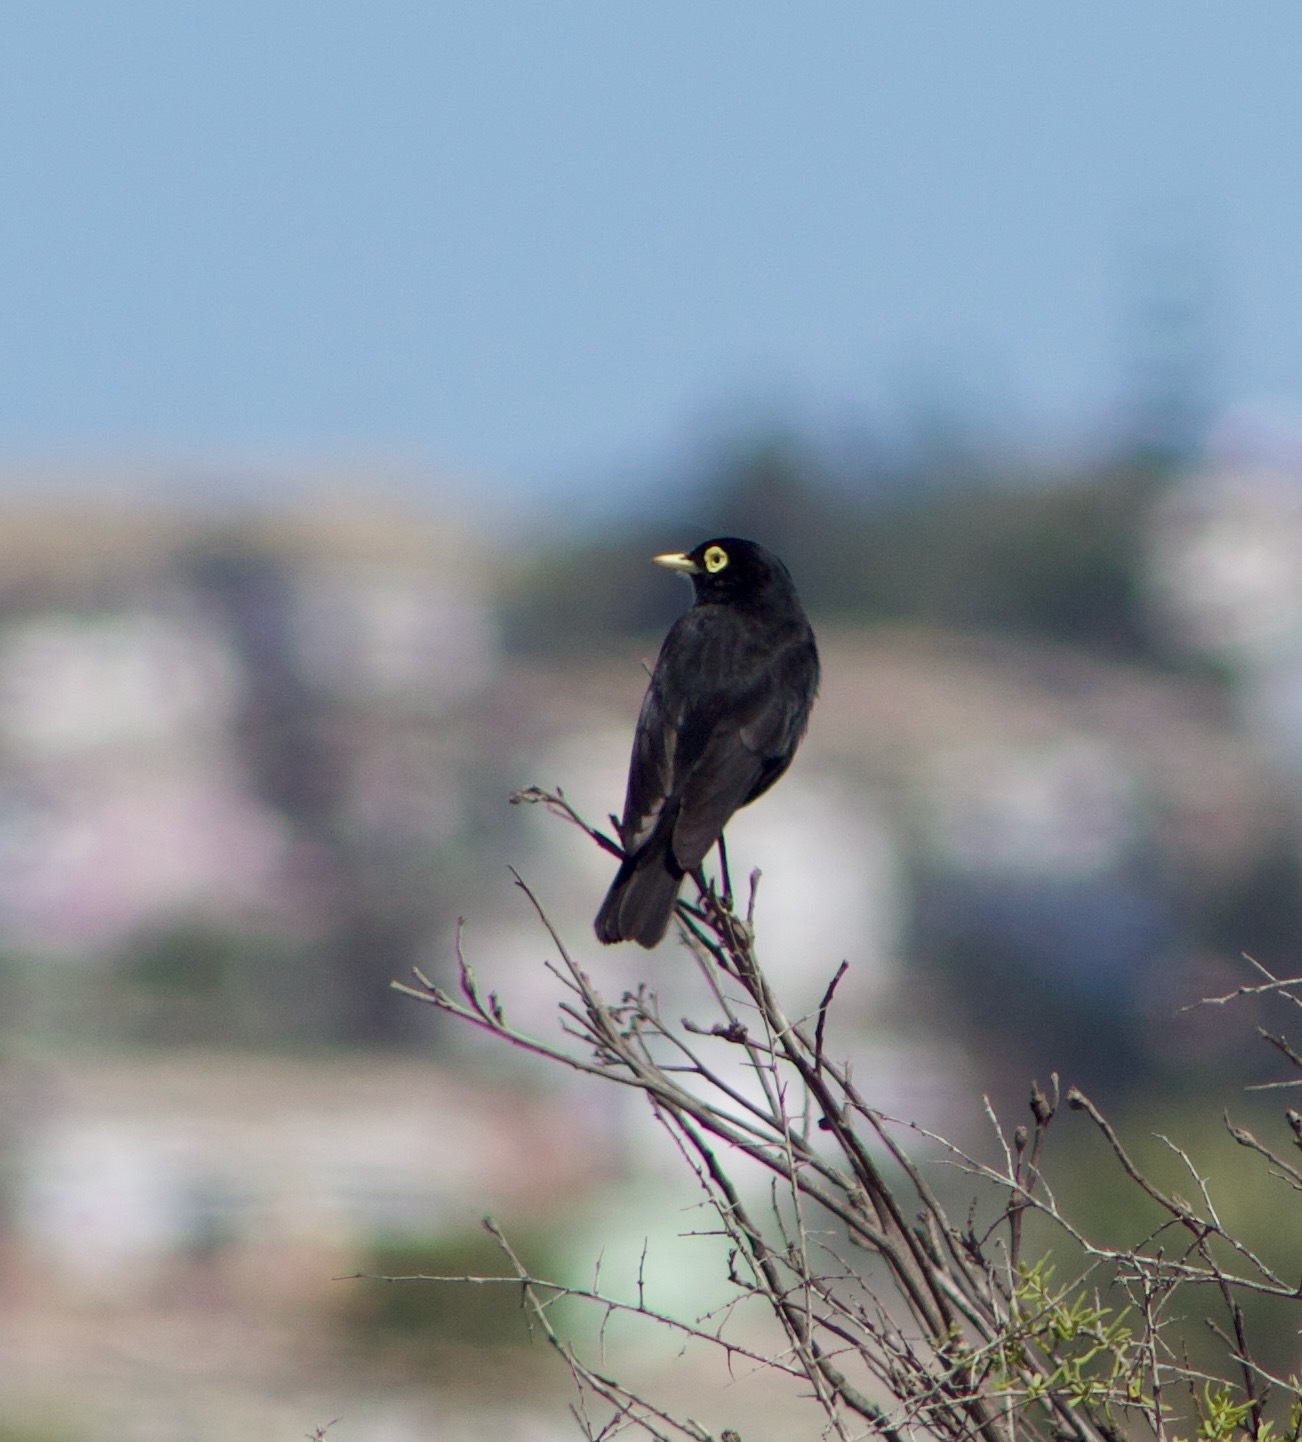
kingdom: Animalia
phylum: Chordata
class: Aves
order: Passeriformes
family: Tyrannidae
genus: Hymenops
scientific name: Hymenops perspicillatus
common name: Spectacled tyrant
